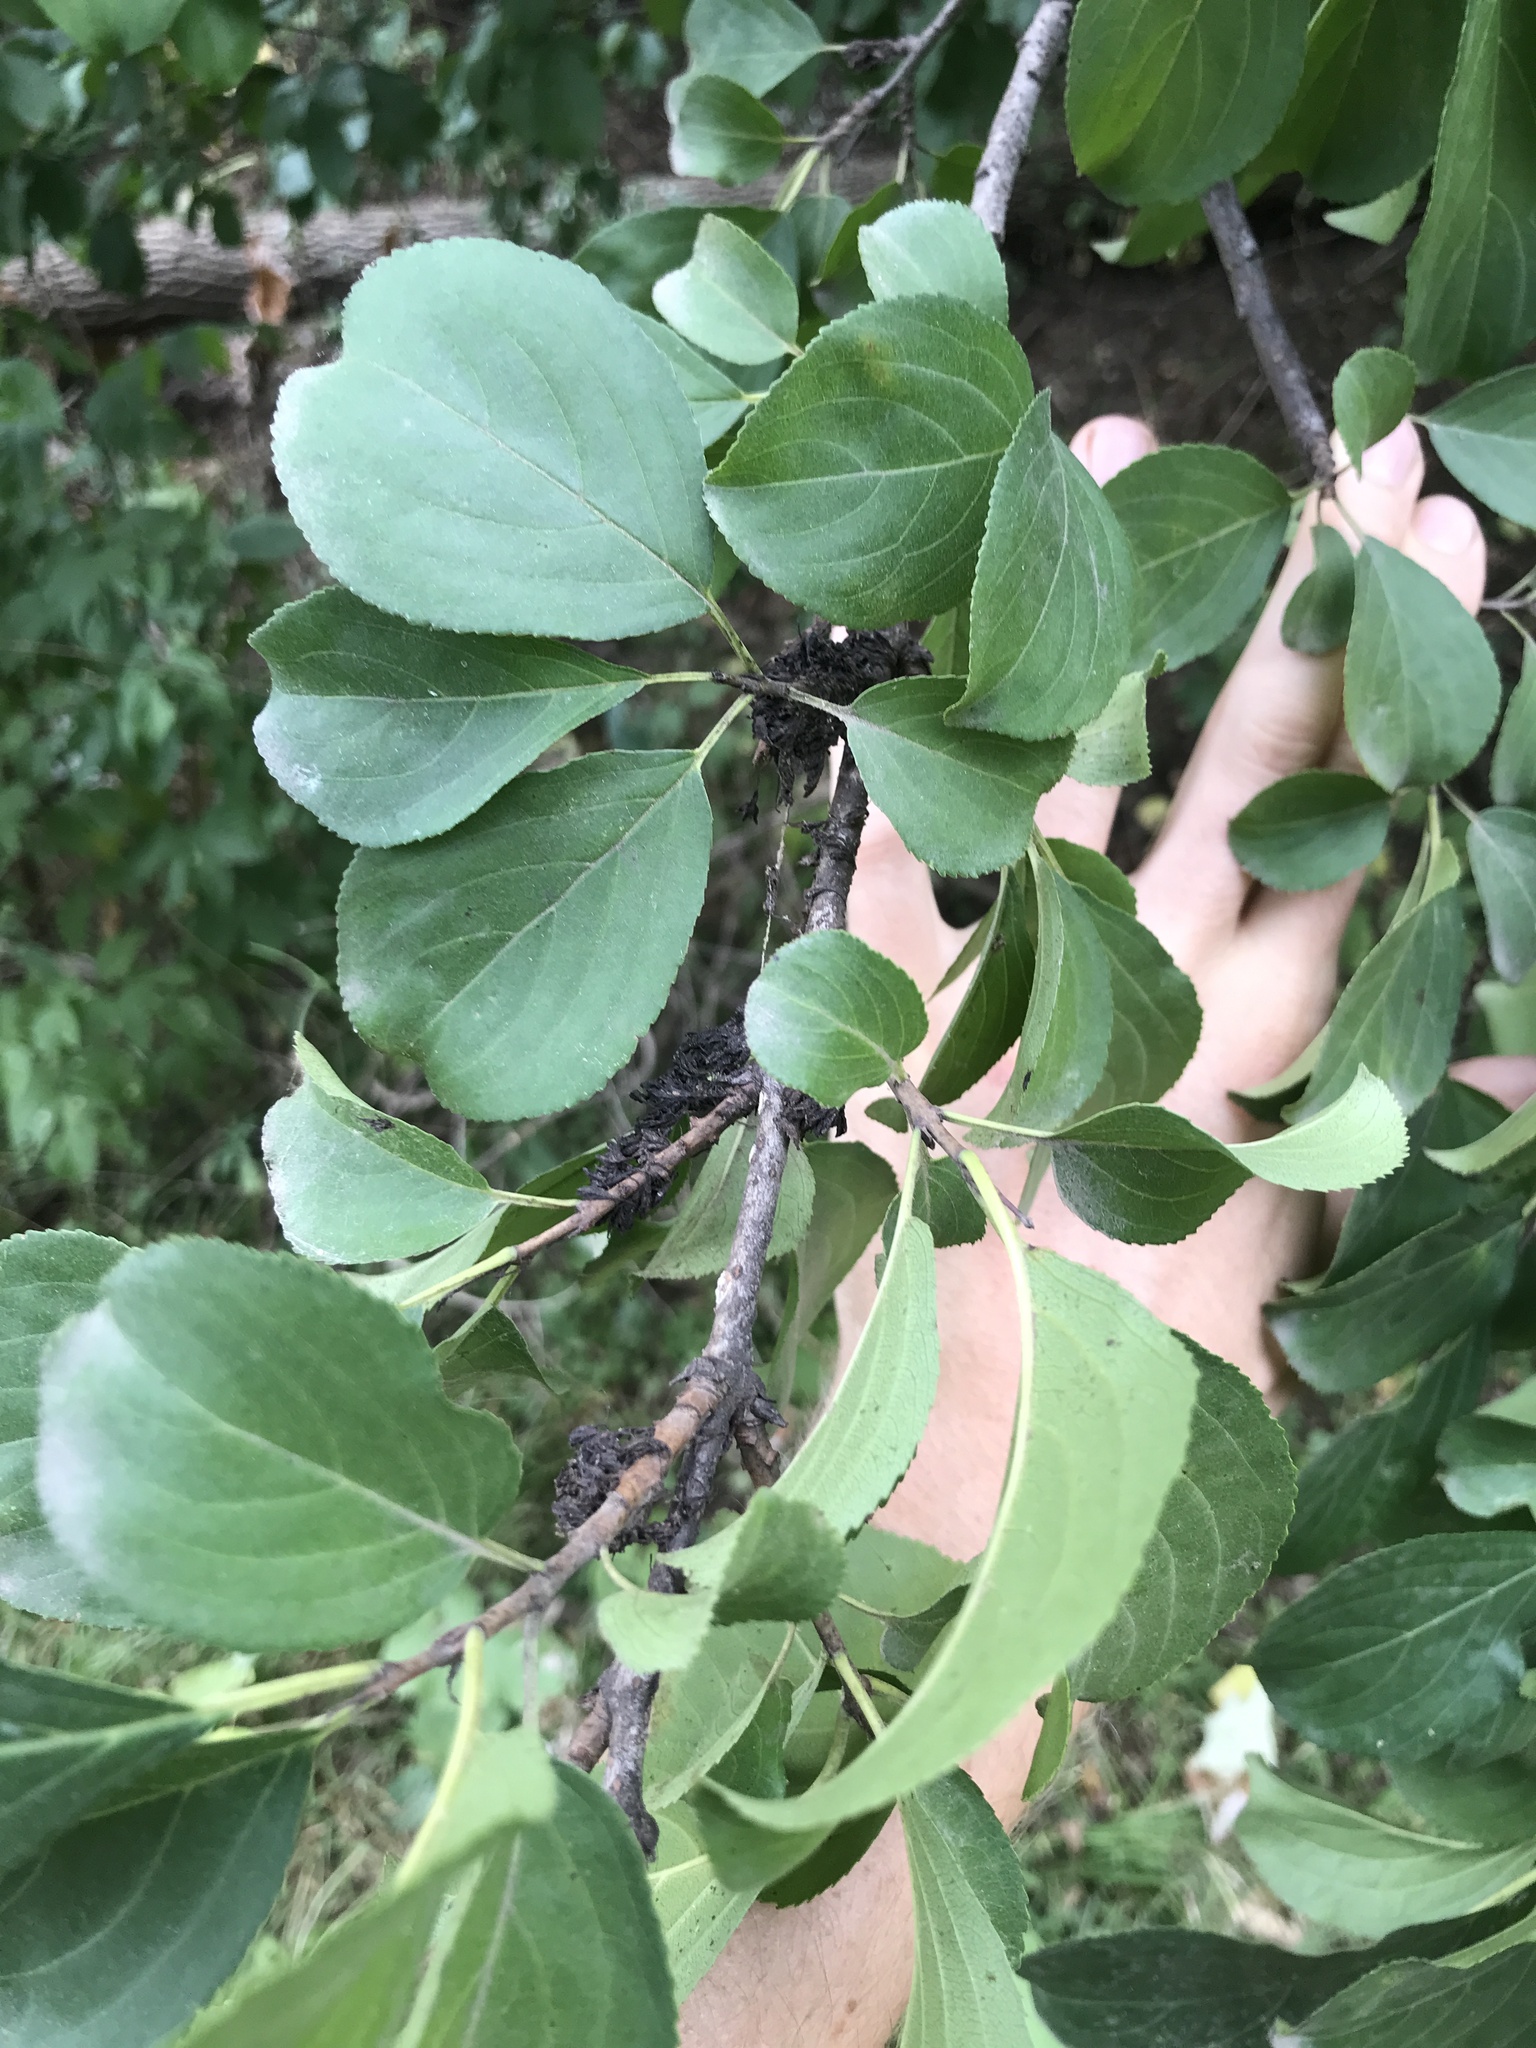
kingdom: Plantae
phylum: Tracheophyta
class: Magnoliopsida
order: Rosales
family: Rhamnaceae
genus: Rhamnus
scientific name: Rhamnus cathartica
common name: Common buckthorn
